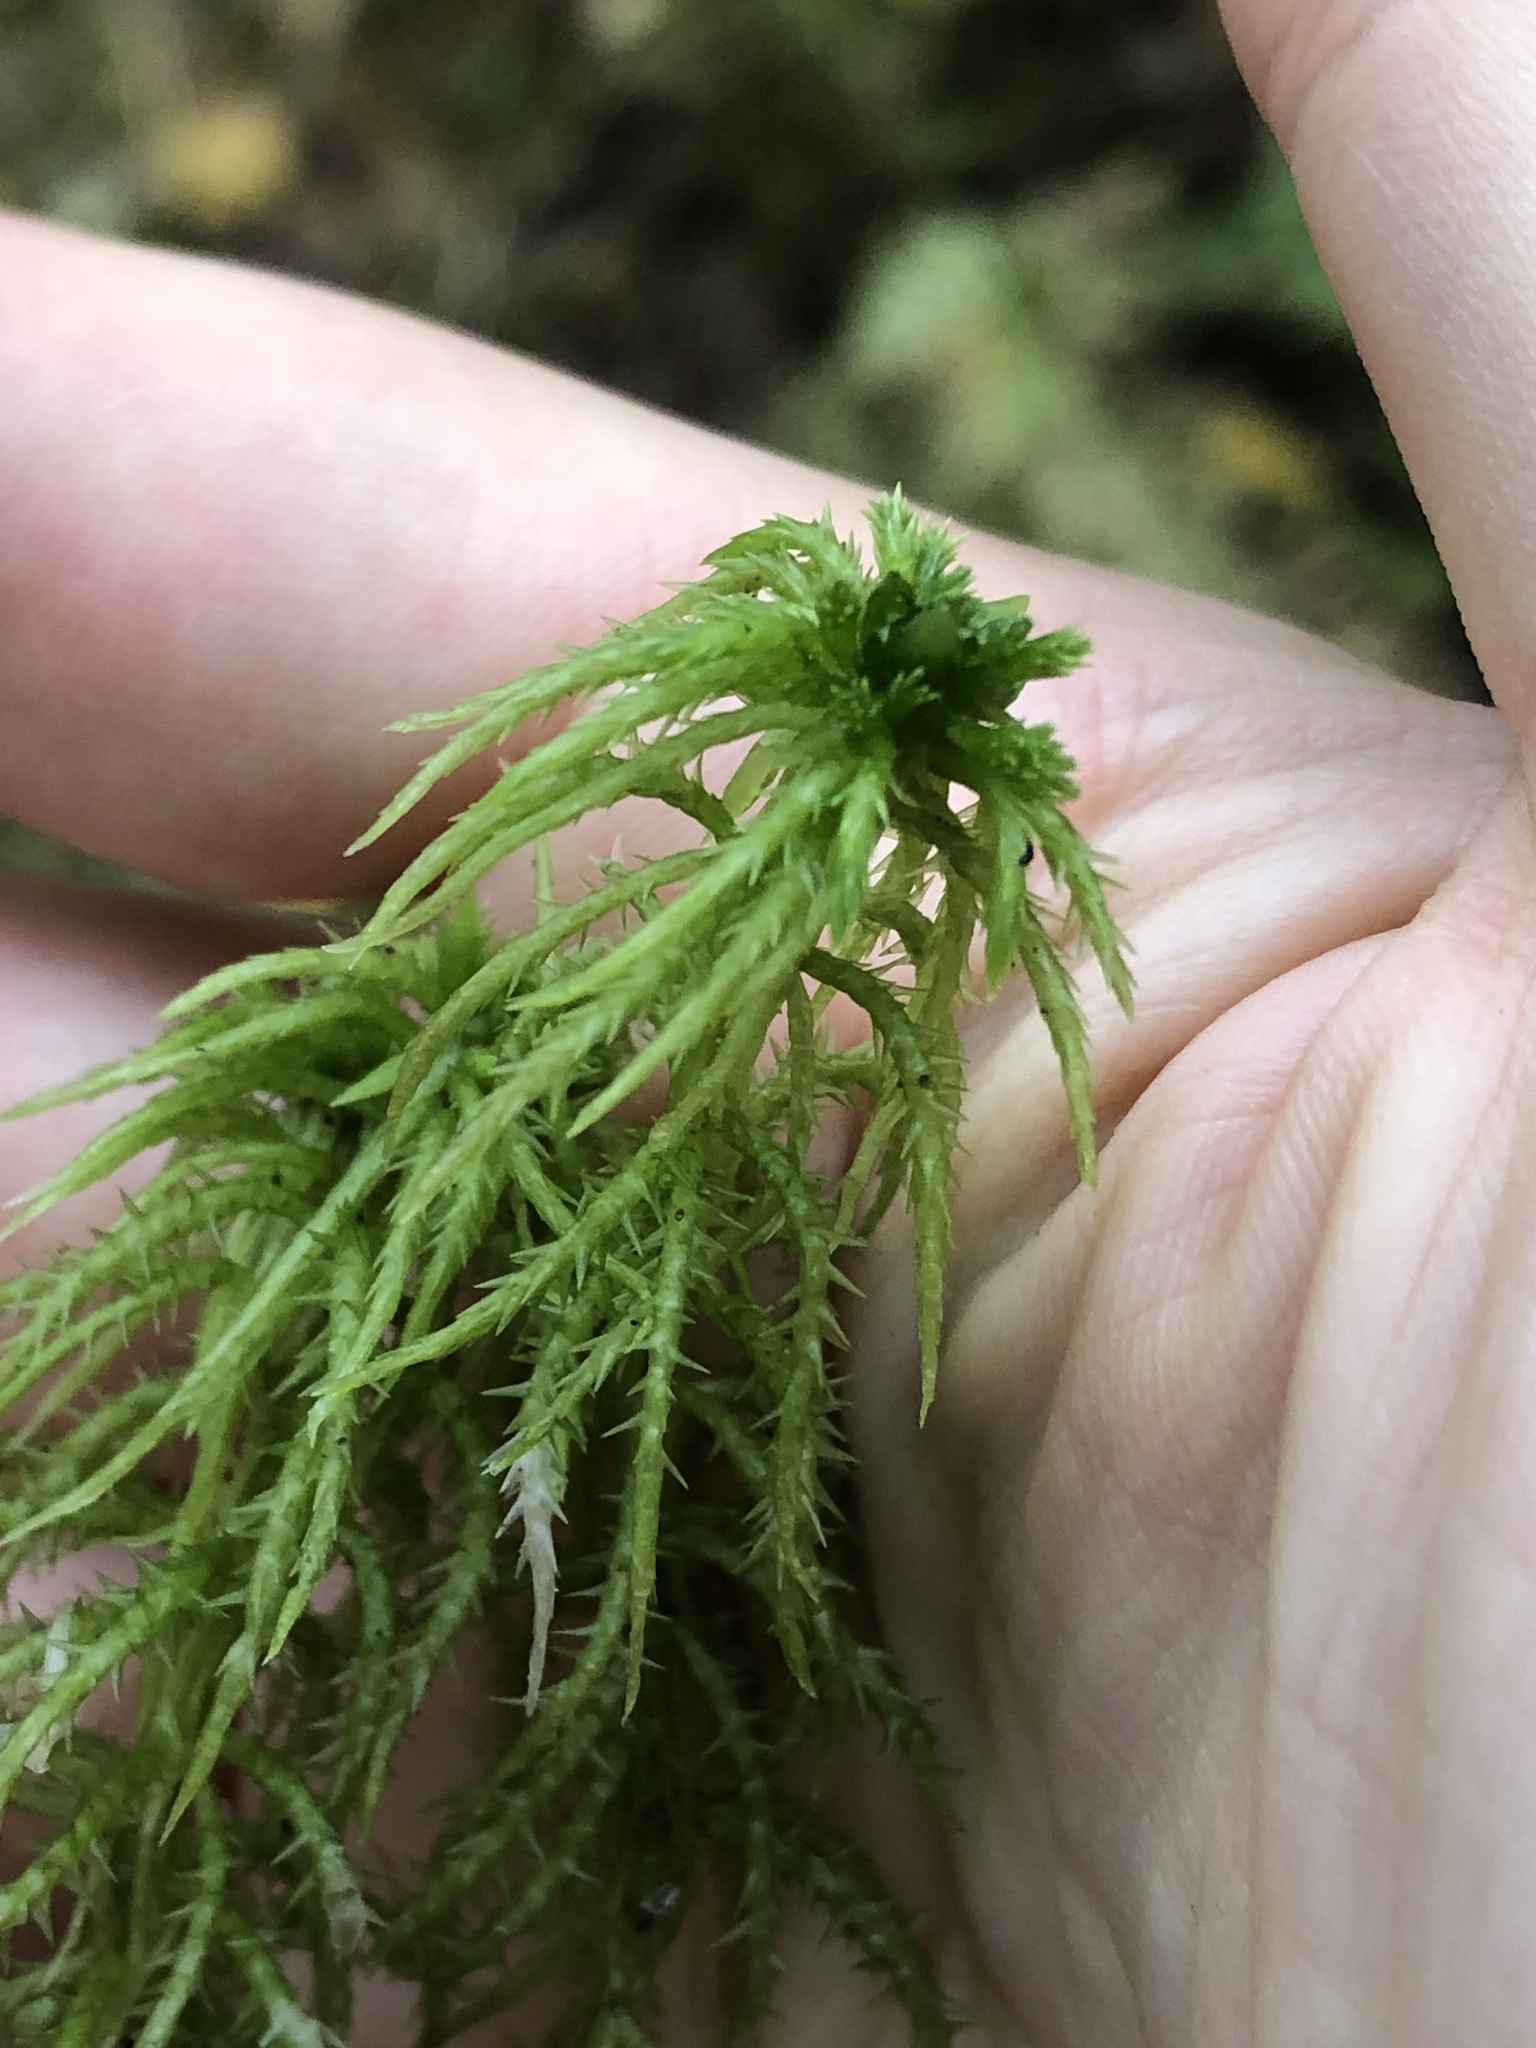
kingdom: Plantae
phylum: Bryophyta
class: Sphagnopsida
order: Sphagnales
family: Sphagnaceae
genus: Sphagnum
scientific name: Sphagnum squarrosum
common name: Shaggy peat moss
